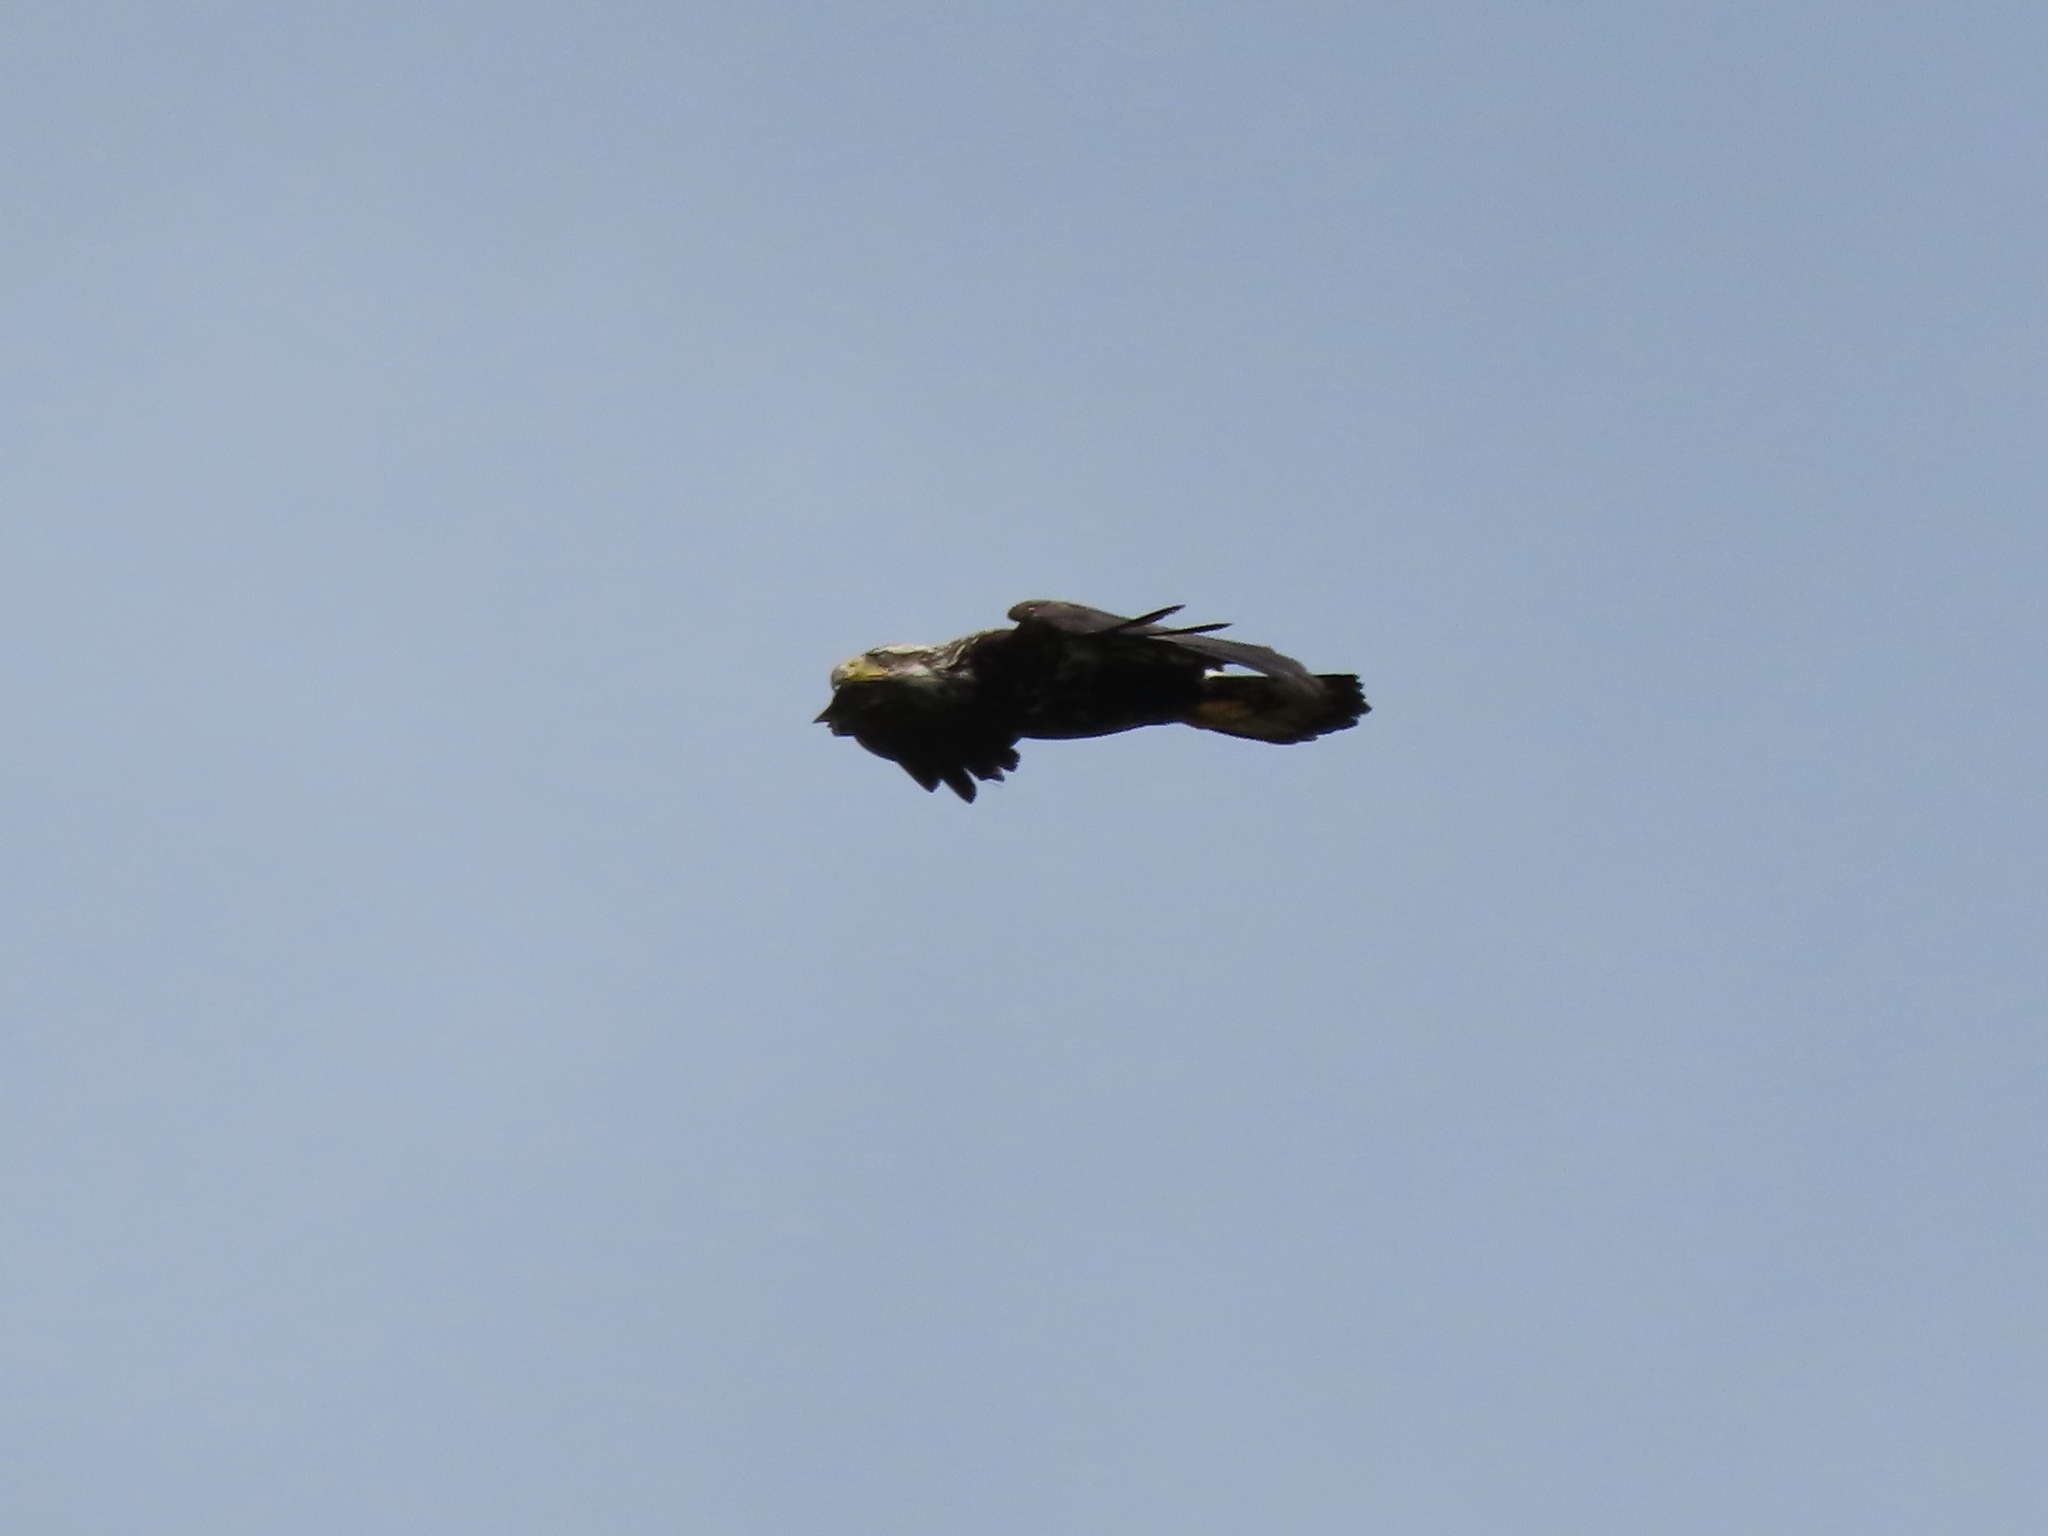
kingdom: Animalia
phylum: Chordata
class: Aves
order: Accipitriformes
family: Accipitridae
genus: Haliaeetus
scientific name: Haliaeetus leucocephalus
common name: Bald eagle
